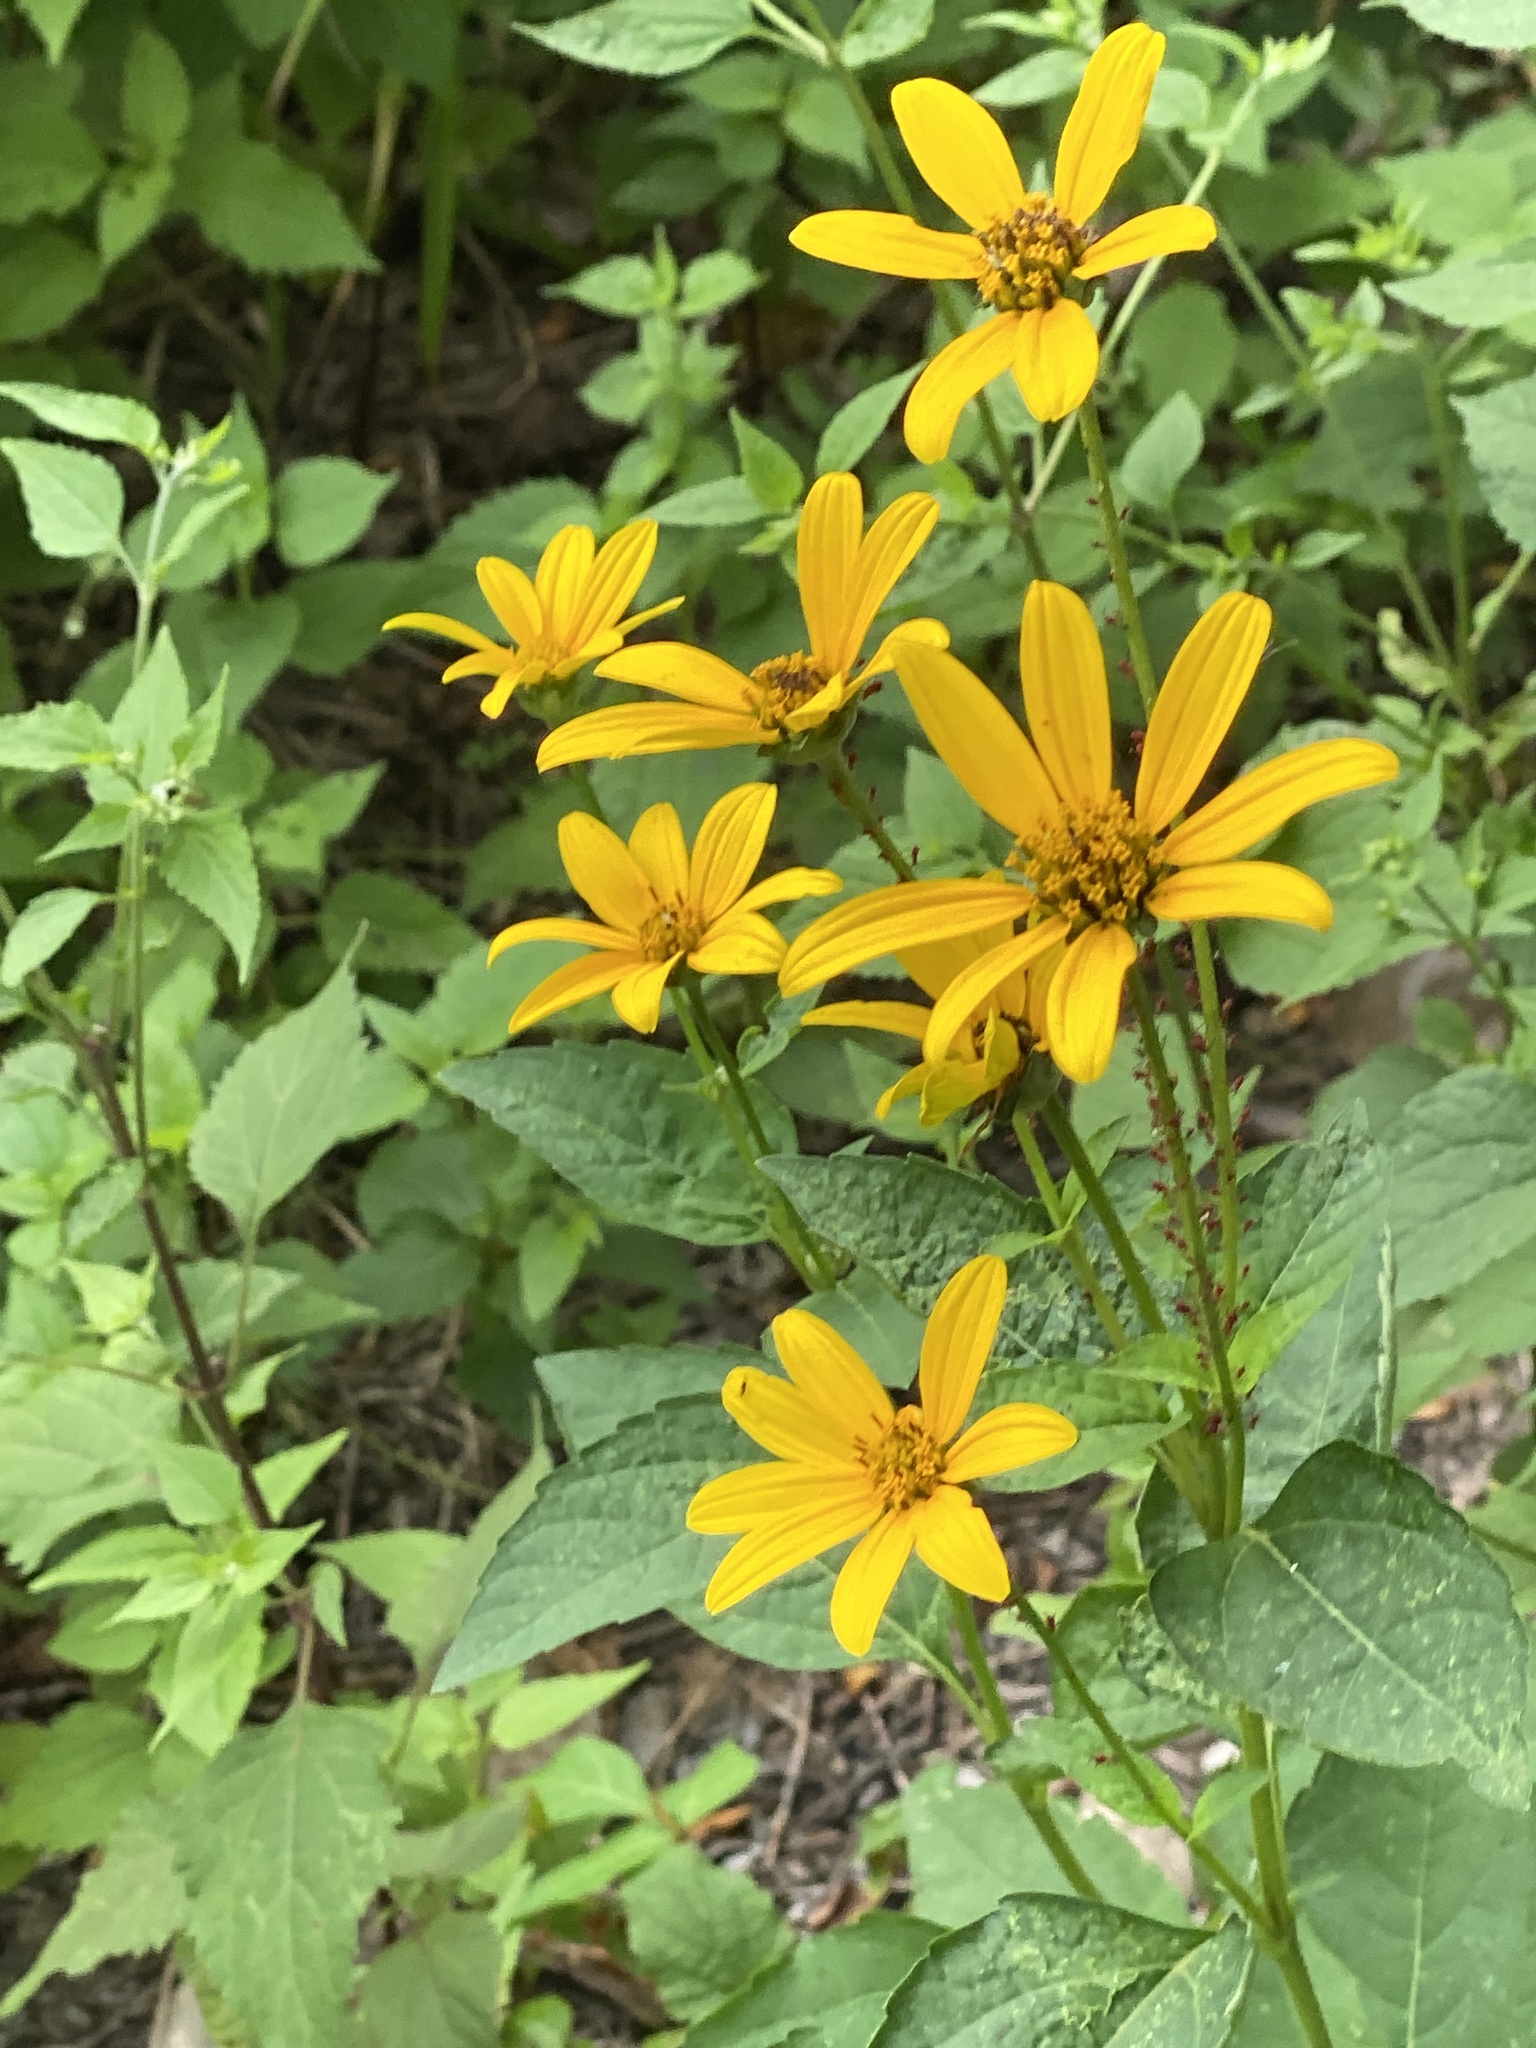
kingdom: Plantae
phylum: Tracheophyta
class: Magnoliopsida
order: Asterales
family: Asteraceae
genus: Heliopsis
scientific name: Heliopsis helianthoides
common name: False sunflower
